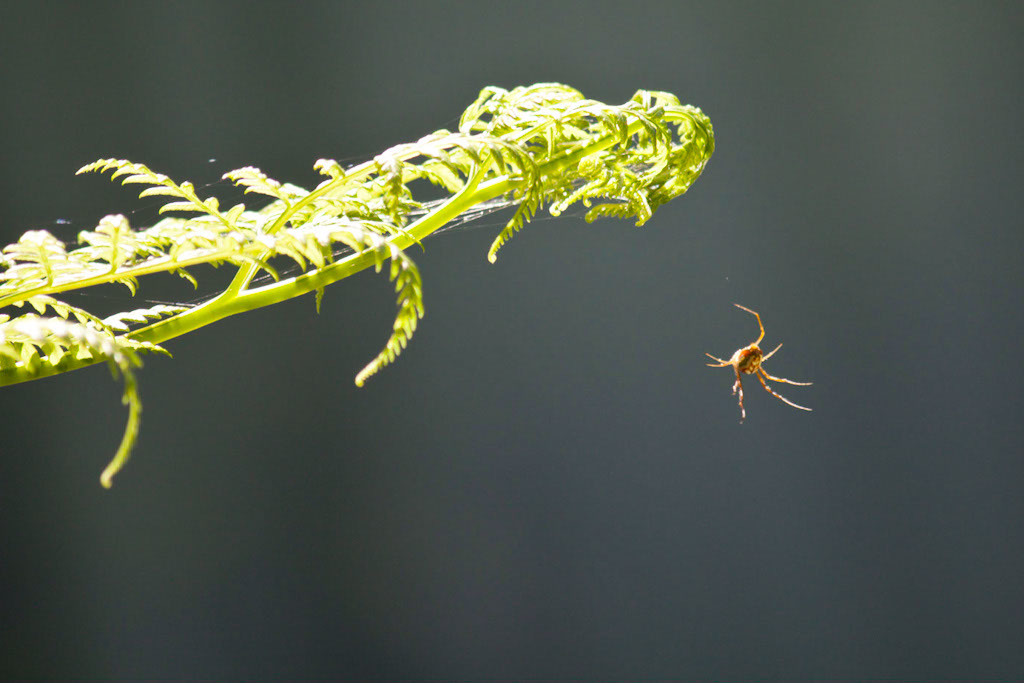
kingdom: Animalia
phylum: Arthropoda
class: Arachnida
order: Araneae
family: Tetragnathidae
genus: Leucauge
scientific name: Leucauge festiva
